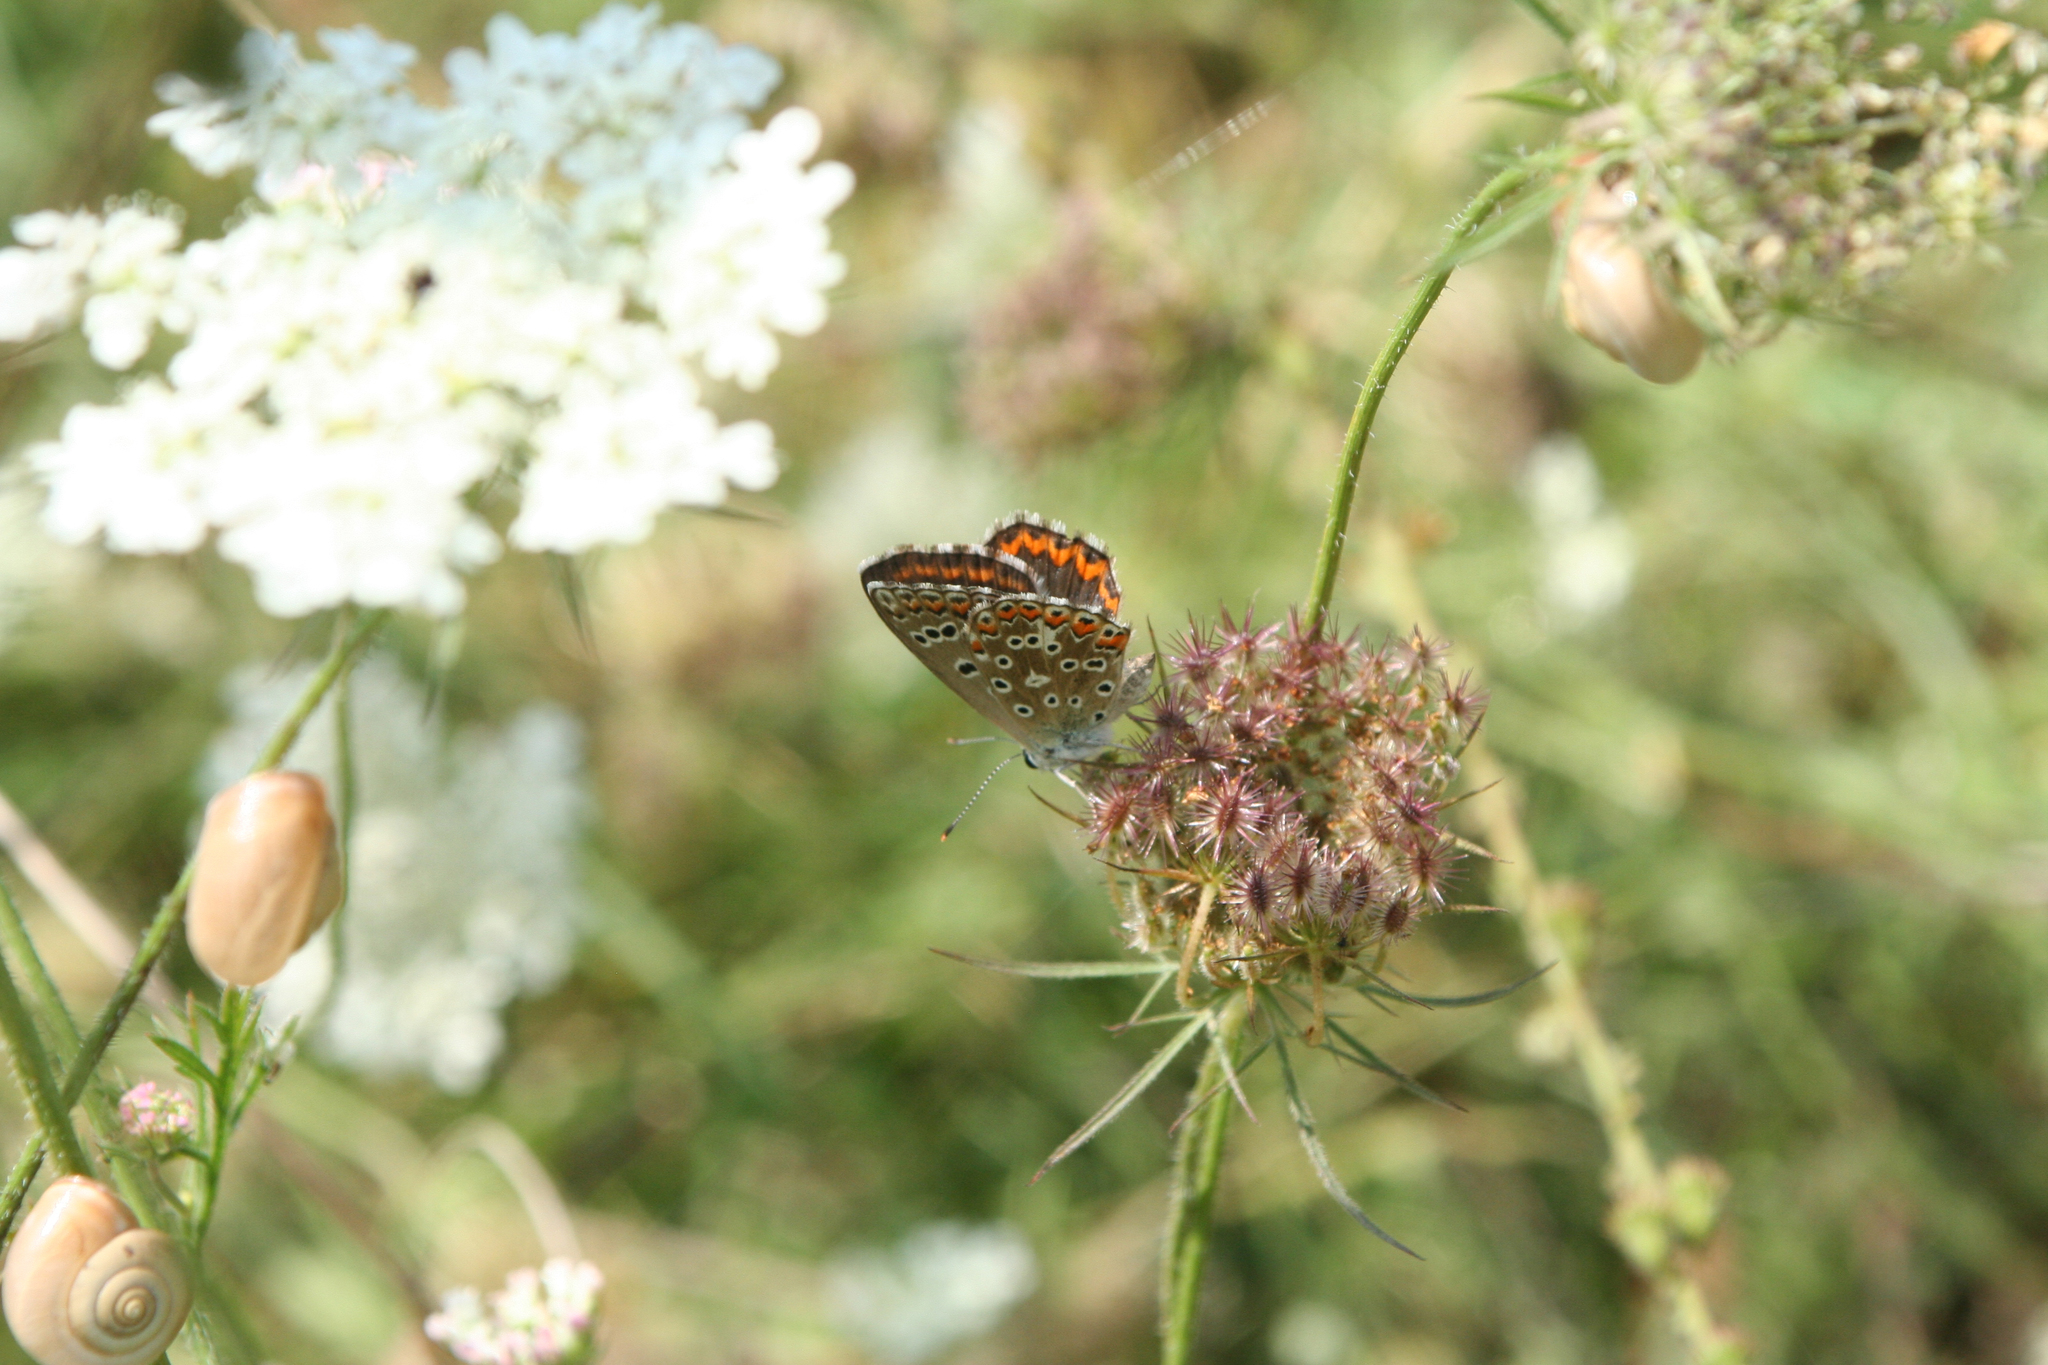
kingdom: Plantae
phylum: Tracheophyta
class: Magnoliopsida
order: Apiales
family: Apiaceae
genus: Daucus
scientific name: Daucus carota
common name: Wild carrot
